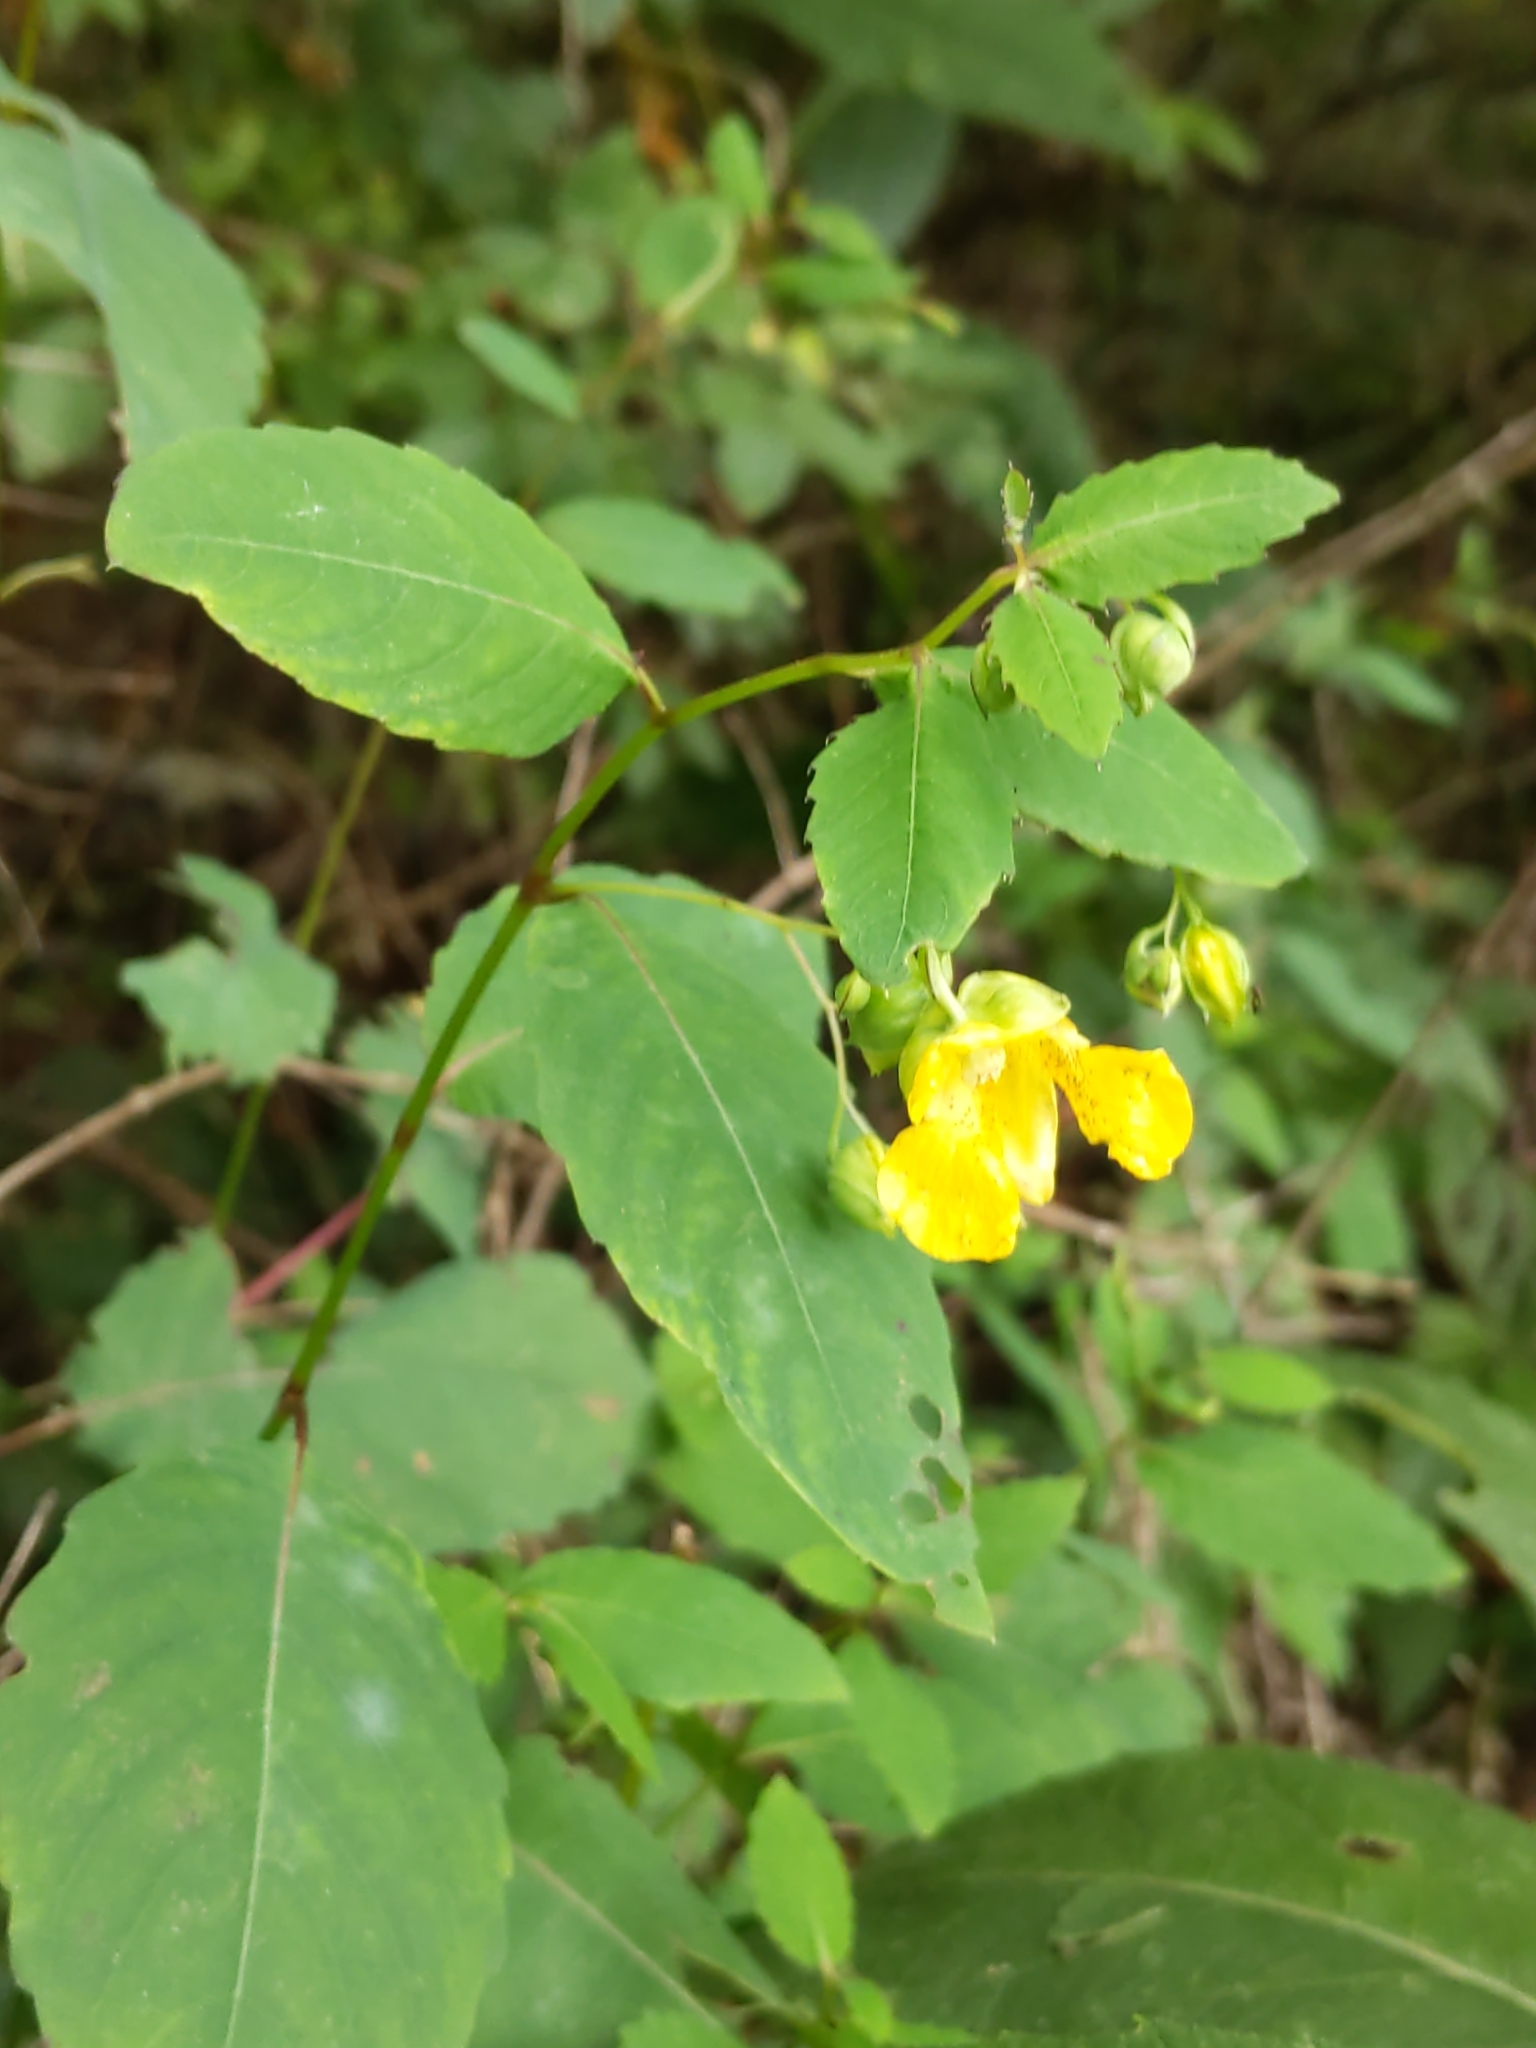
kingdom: Plantae
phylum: Tracheophyta
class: Magnoliopsida
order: Ericales
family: Balsaminaceae
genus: Impatiens
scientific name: Impatiens pallida
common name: Pale snapweed
